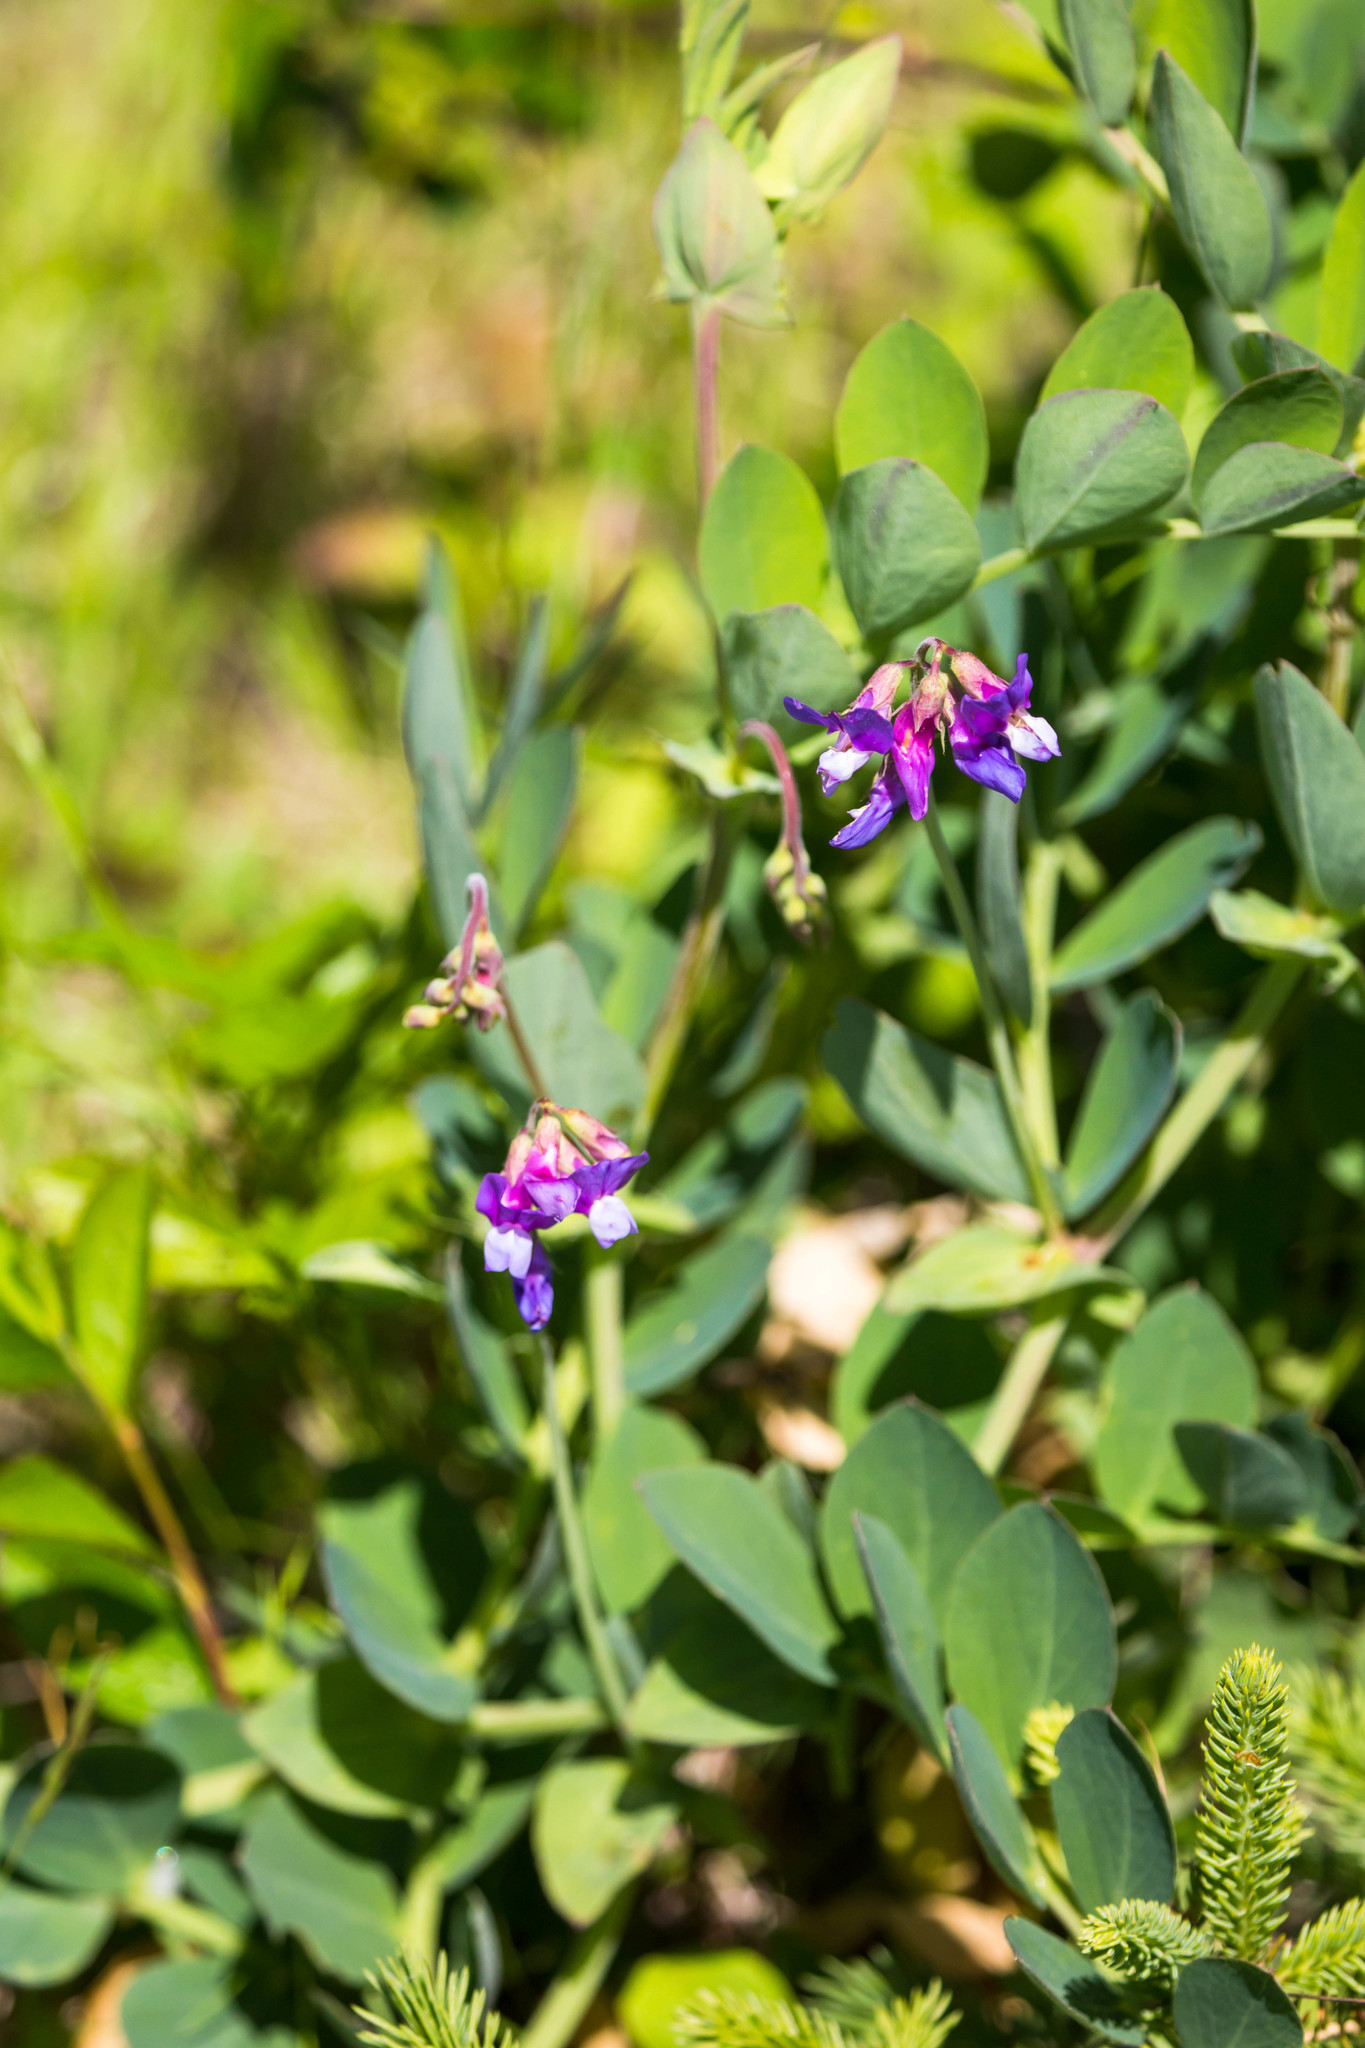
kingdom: Plantae
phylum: Tracheophyta
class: Magnoliopsida
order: Fabales
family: Fabaceae
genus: Lathyrus
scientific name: Lathyrus japonicus
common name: Sea pea
